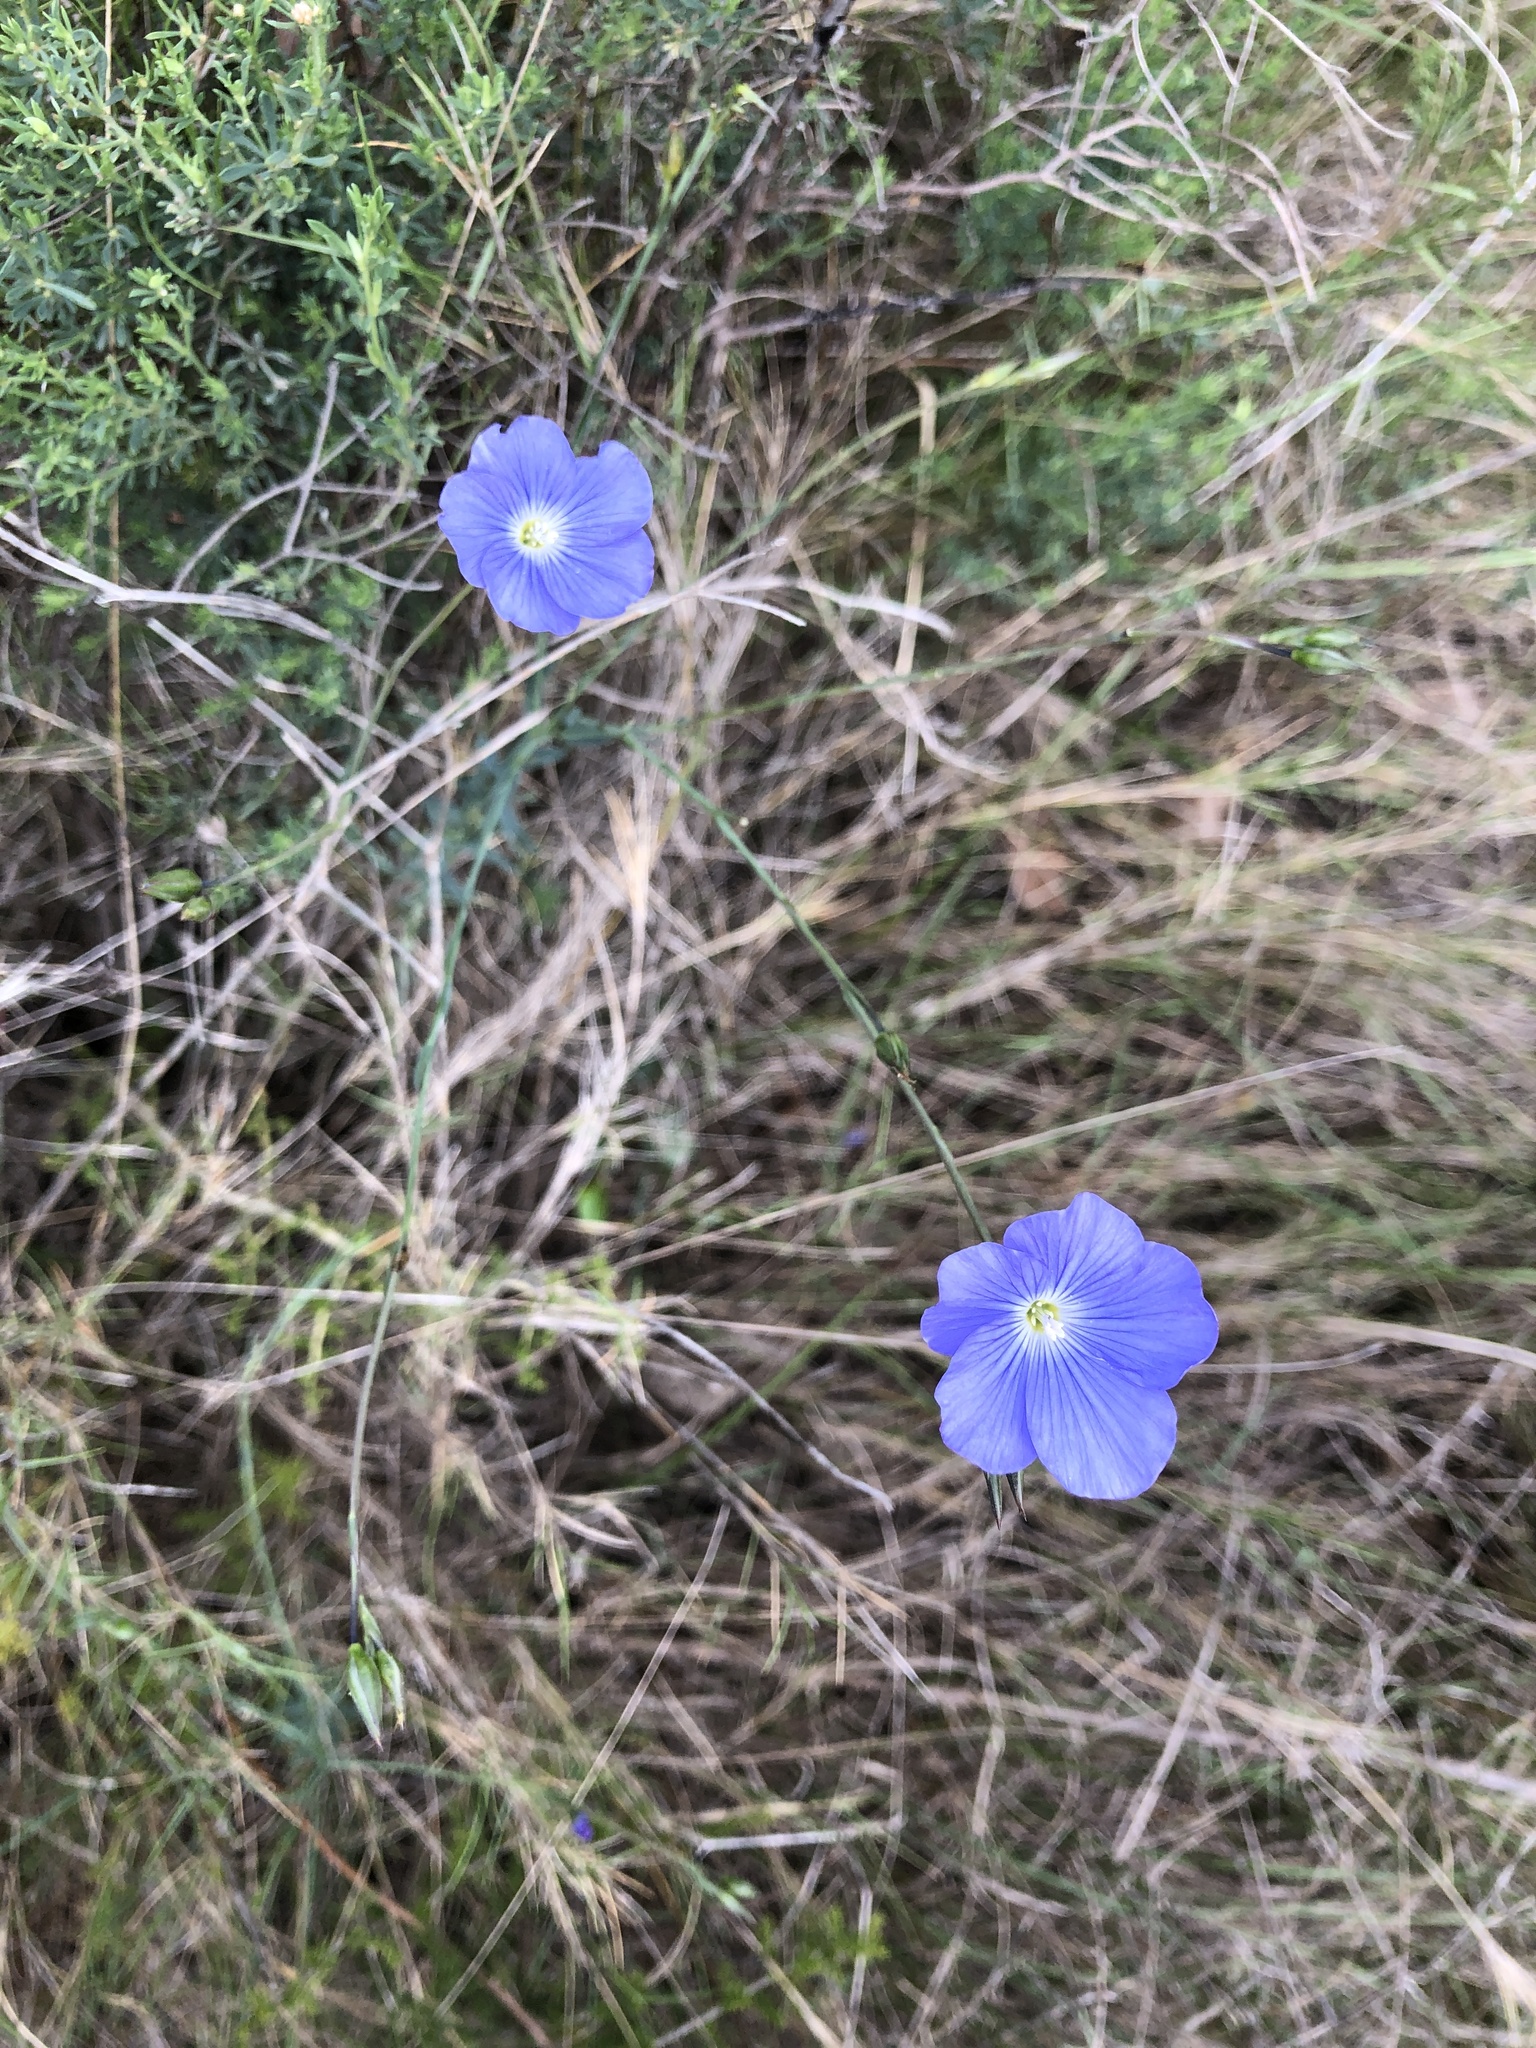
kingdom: Plantae
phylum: Tracheophyta
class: Magnoliopsida
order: Malpighiales
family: Linaceae
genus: Linum
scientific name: Linum narbonense
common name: Flax
